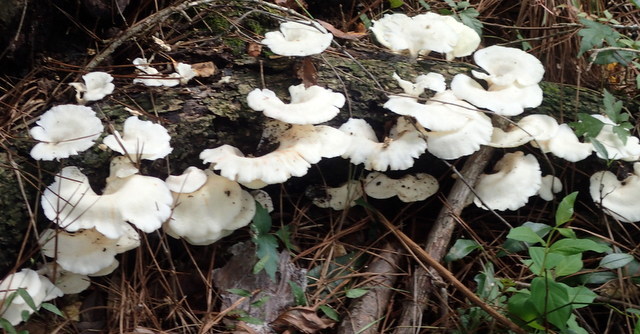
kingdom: Fungi
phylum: Basidiomycota
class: Agaricomycetes
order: Polyporales
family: Polyporaceae
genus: Favolus
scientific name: Favolus tenuiculus
